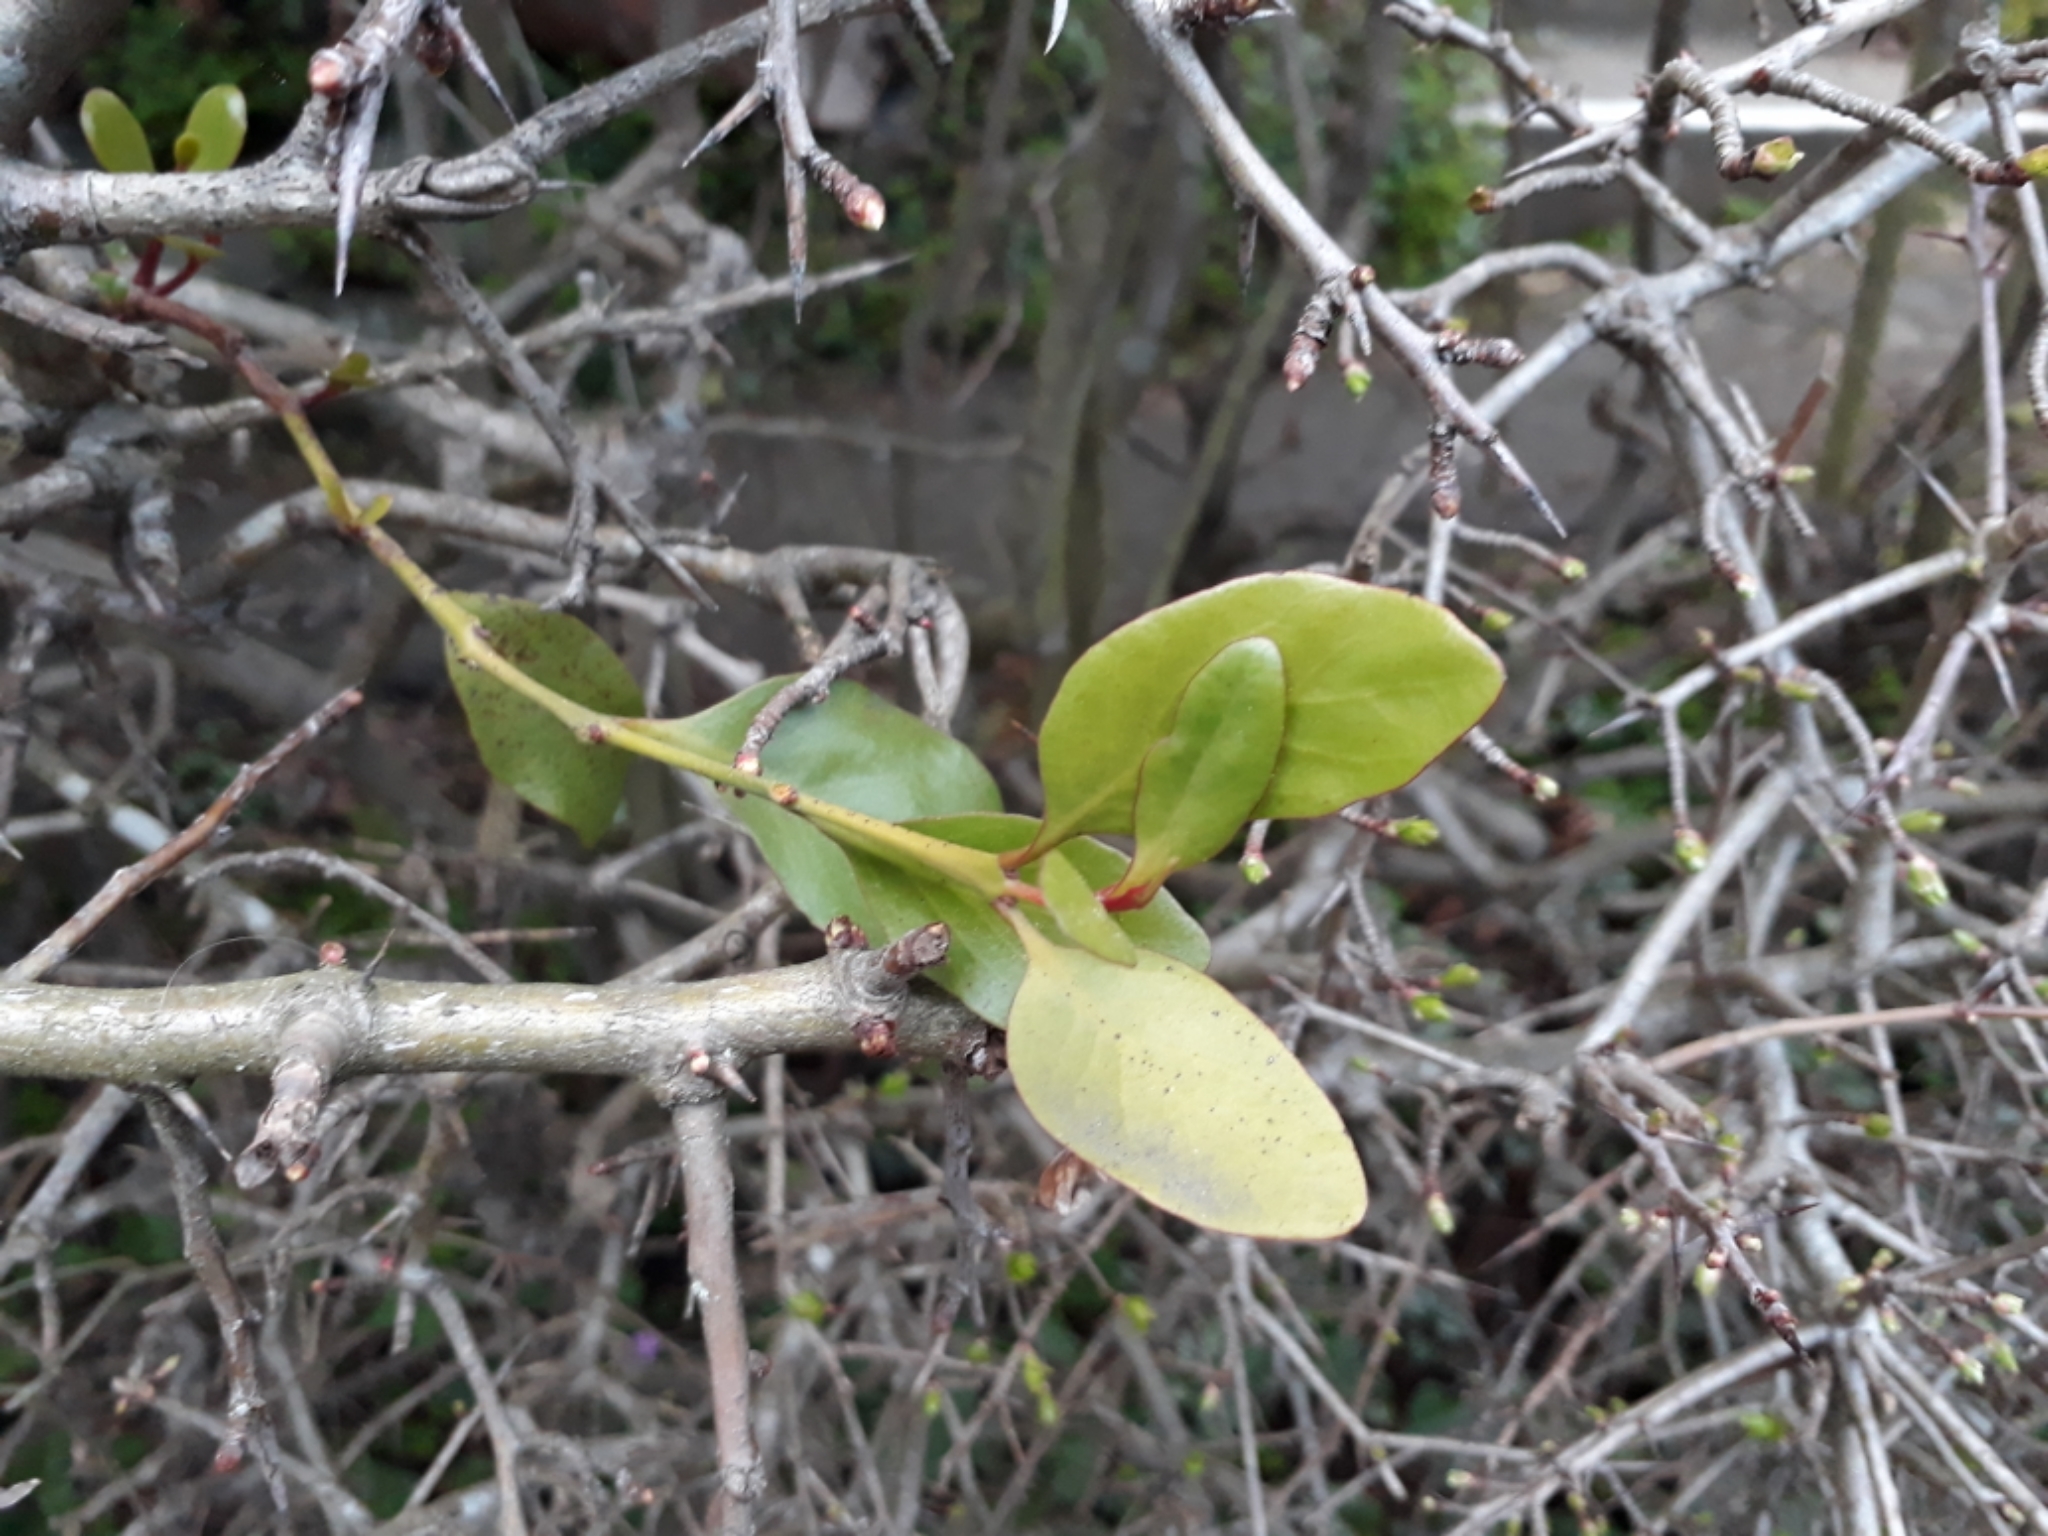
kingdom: Plantae
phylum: Tracheophyta
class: Magnoliopsida
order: Santalales
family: Loranthaceae
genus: Ileostylus
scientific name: Ileostylus micranthus
